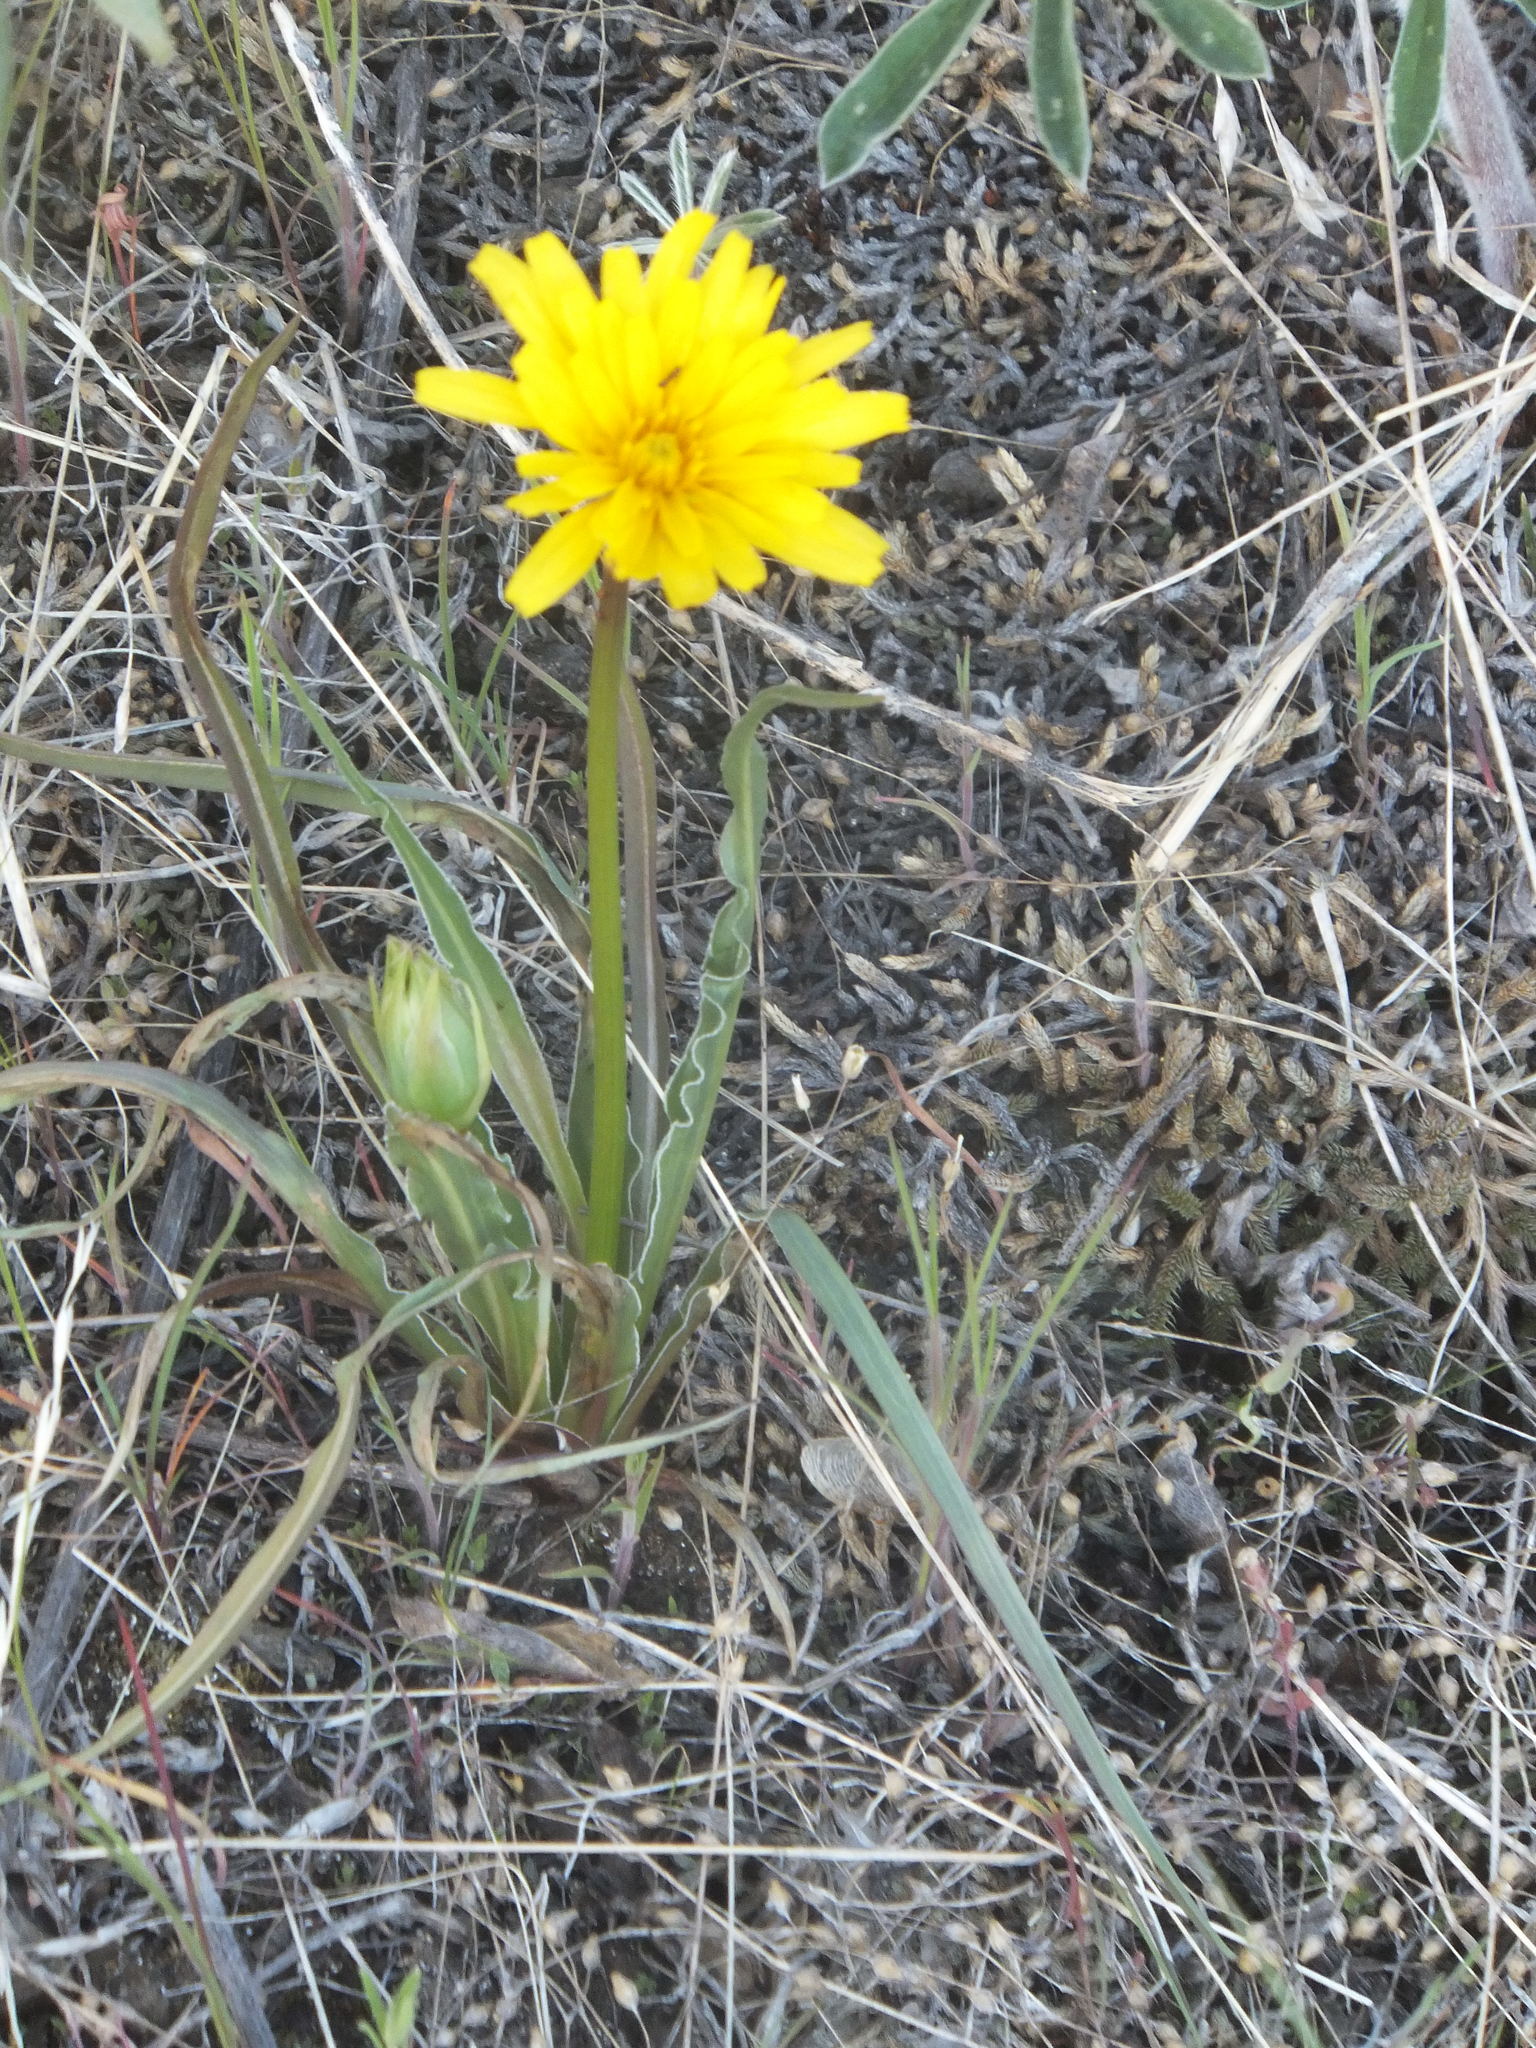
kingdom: Plantae
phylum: Tracheophyta
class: Magnoliopsida
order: Asterales
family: Asteraceae
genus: Microseris
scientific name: Microseris troximoides
